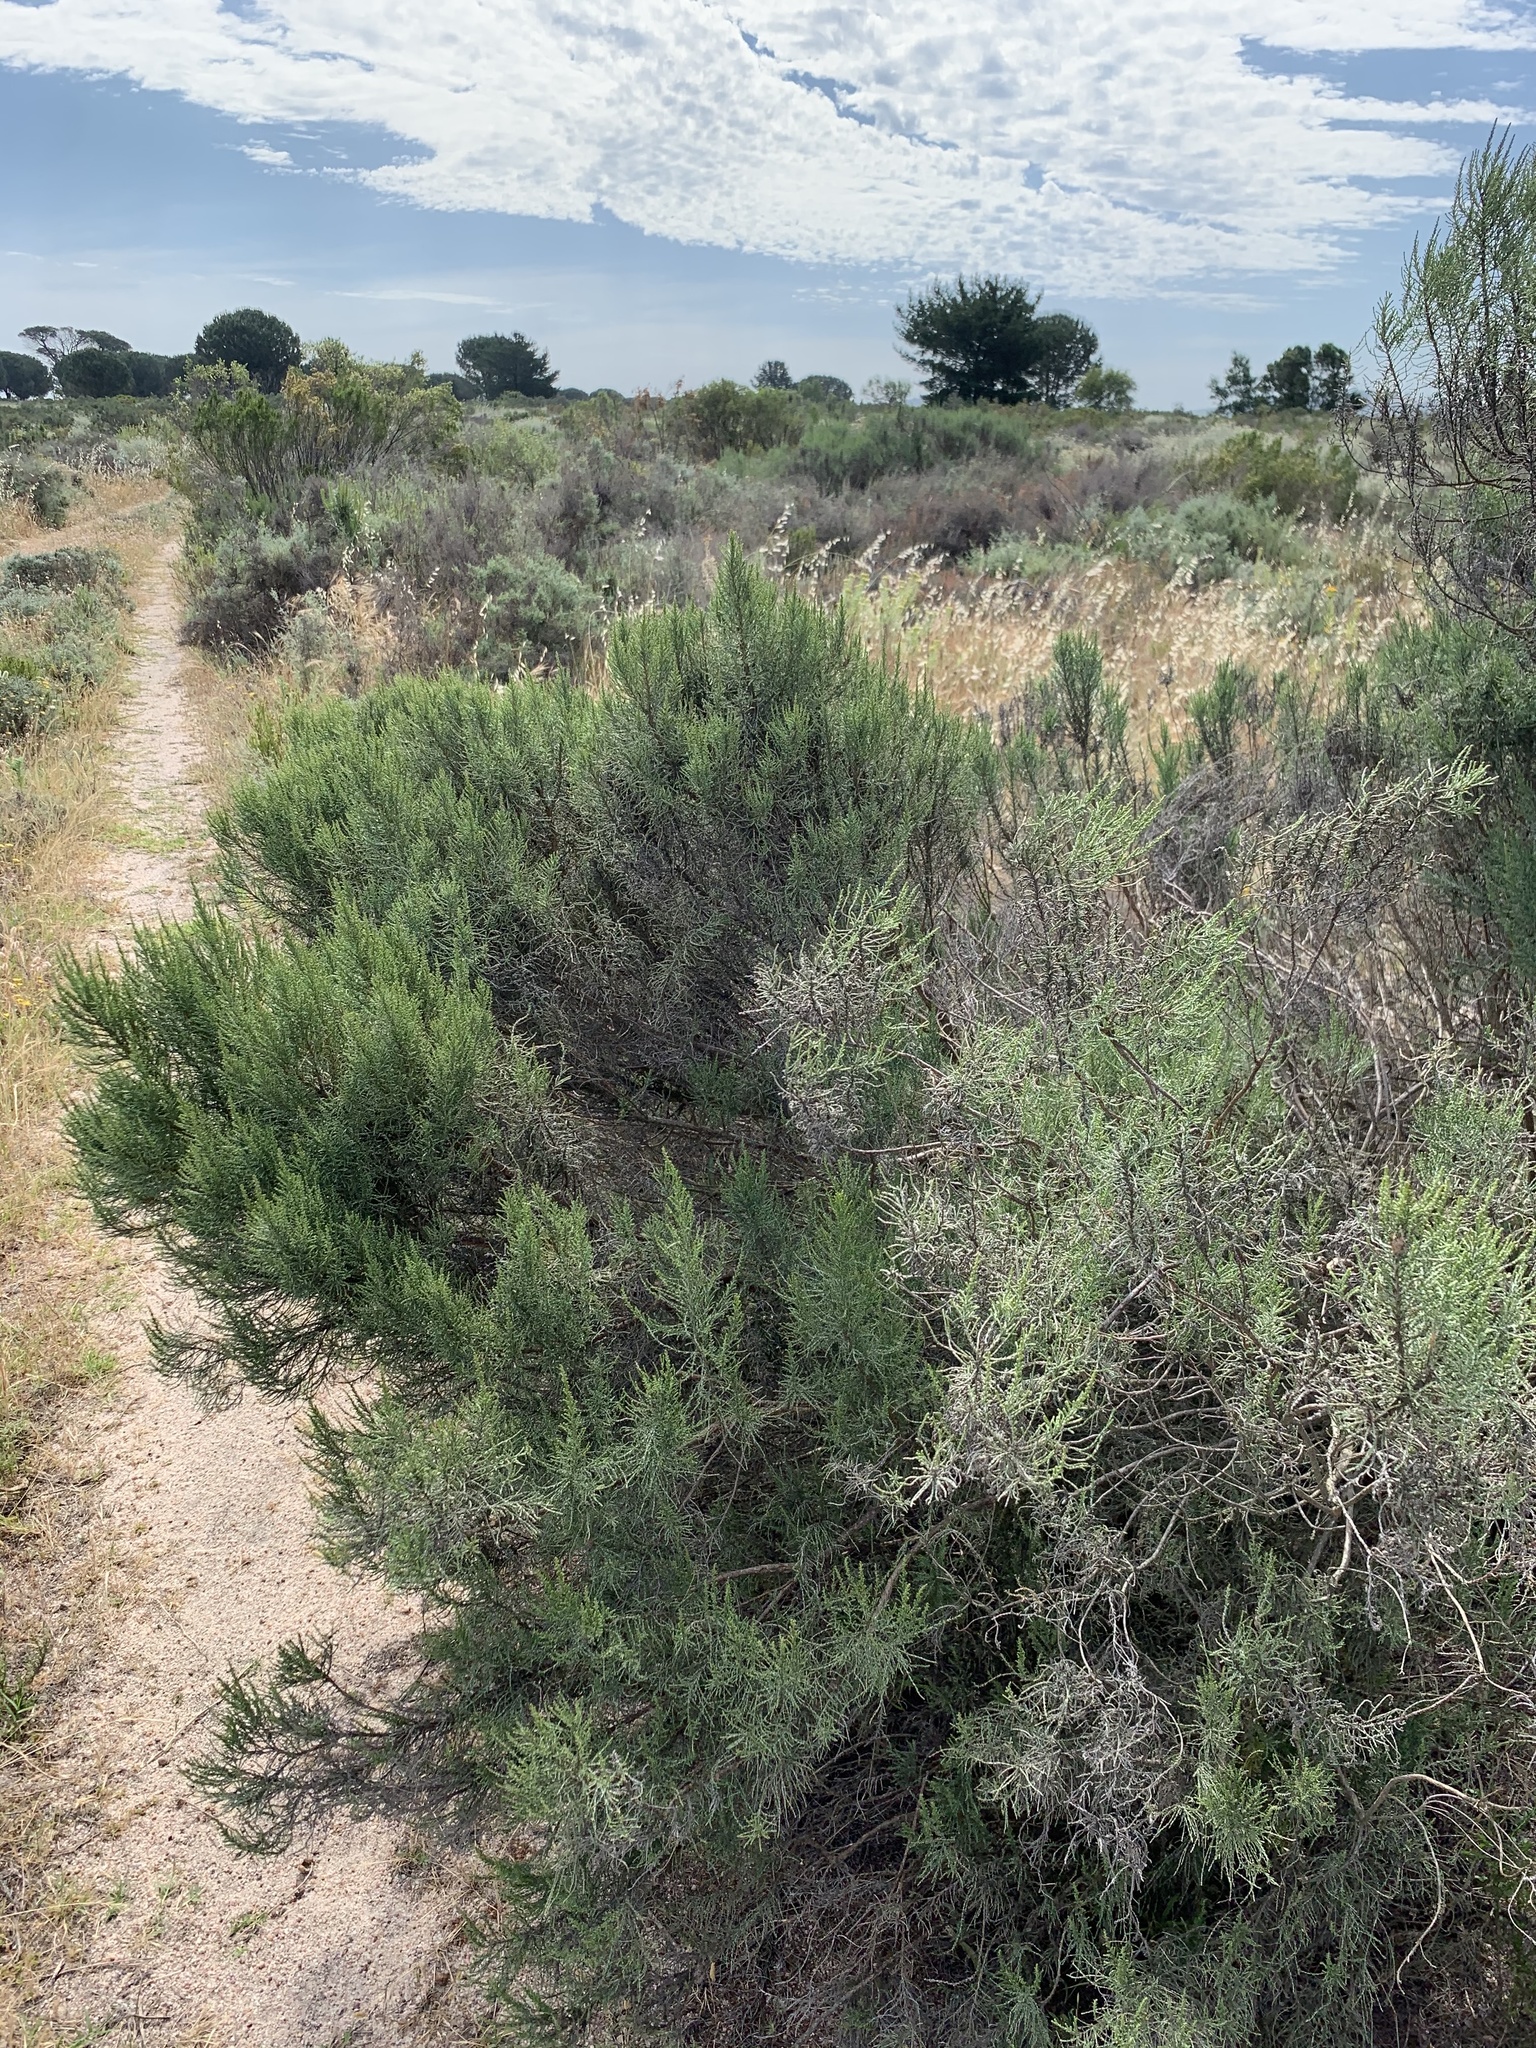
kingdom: Plantae
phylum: Tracheophyta
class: Magnoliopsida
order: Asterales
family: Asteraceae
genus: Dicerothamnus
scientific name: Dicerothamnus rhinocerotis
